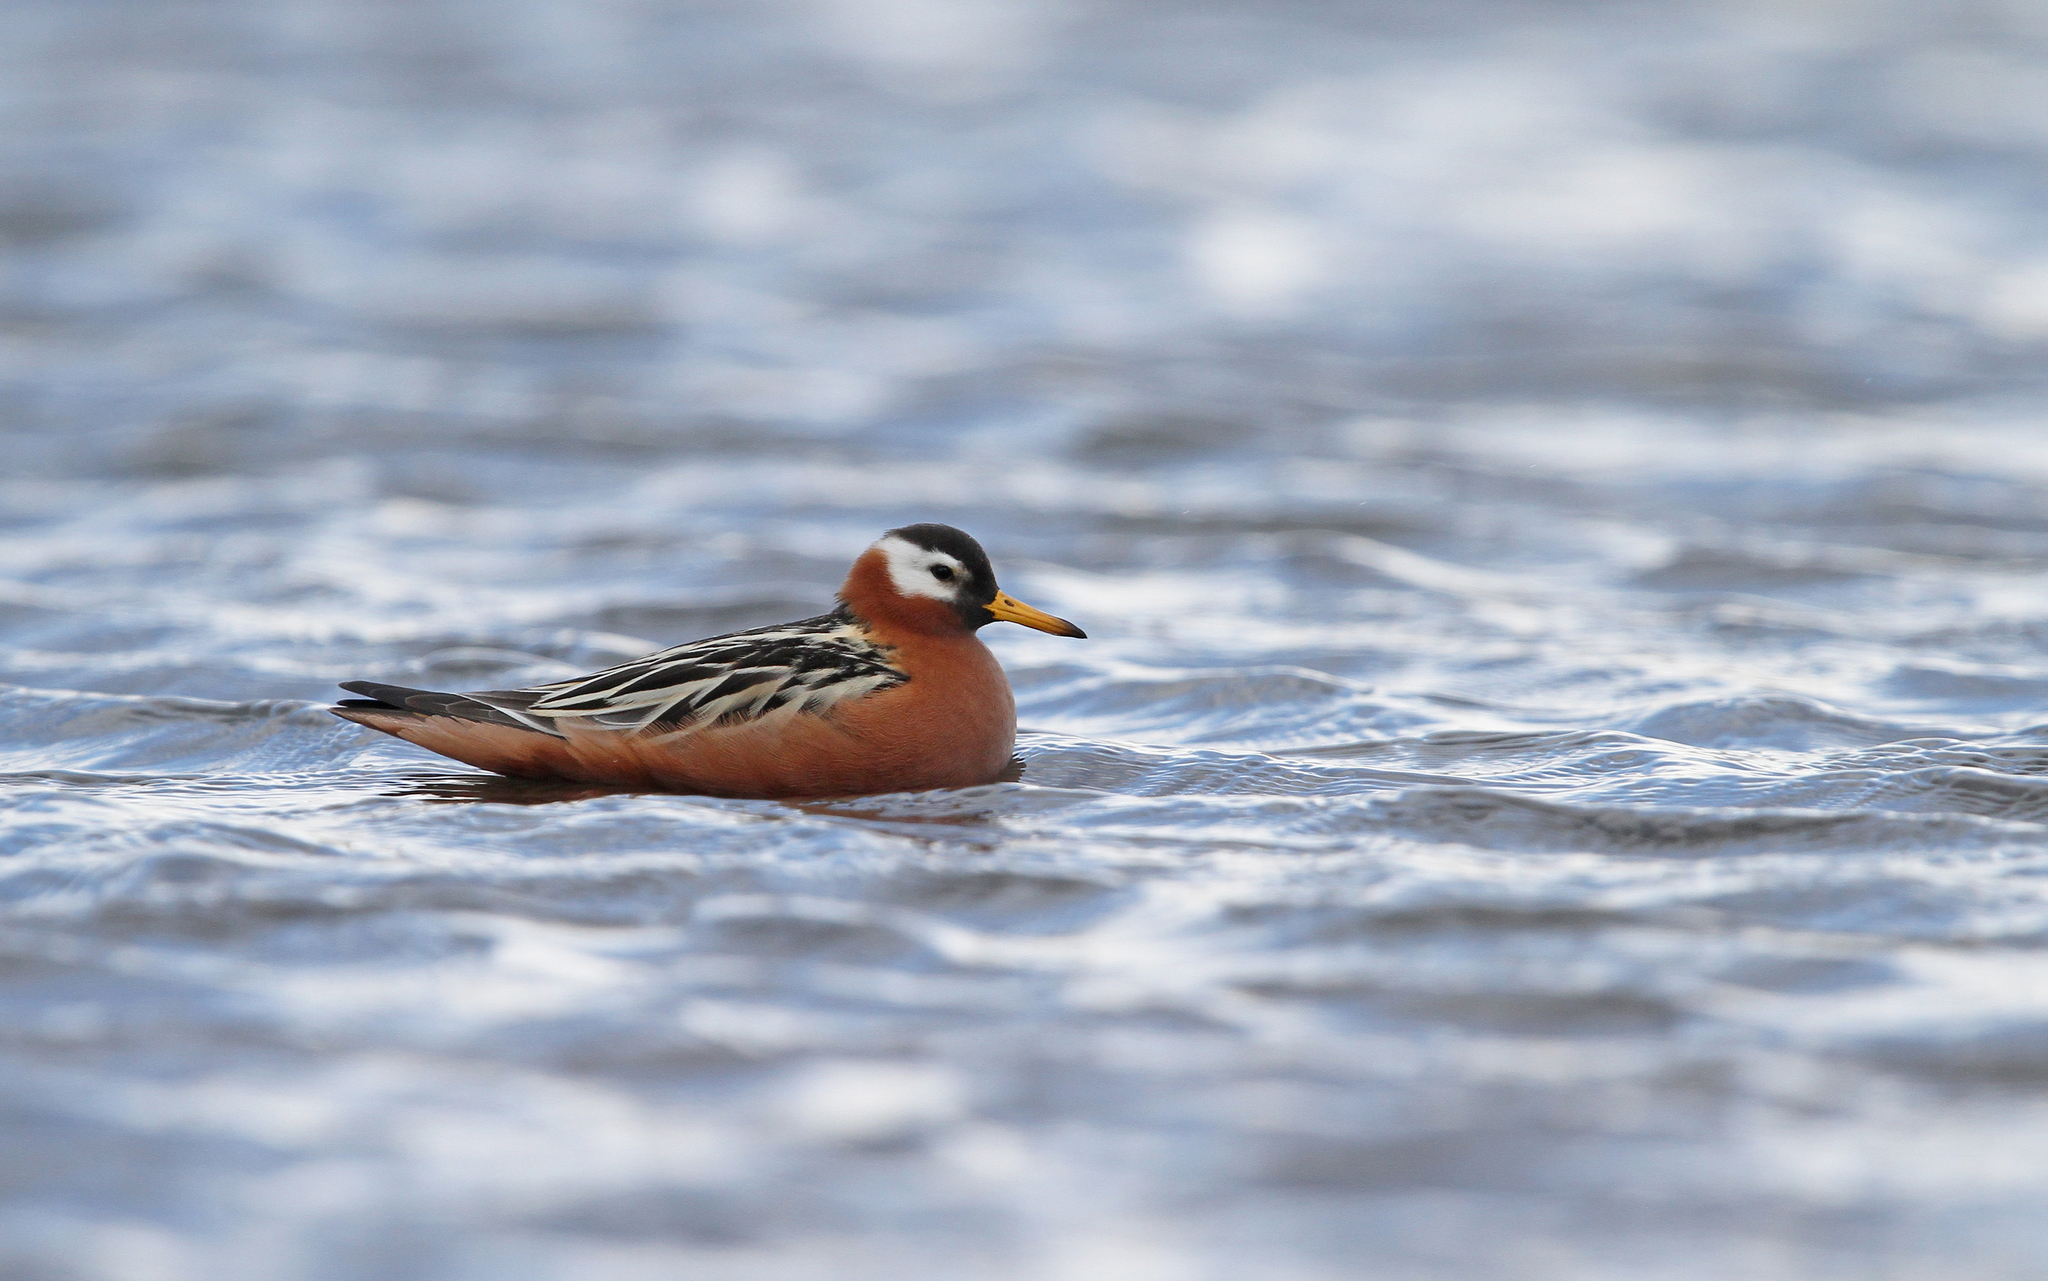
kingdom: Animalia
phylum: Chordata
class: Aves
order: Charadriiformes
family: Scolopacidae
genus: Phalaropus
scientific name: Phalaropus fulicarius
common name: Red phalarope
